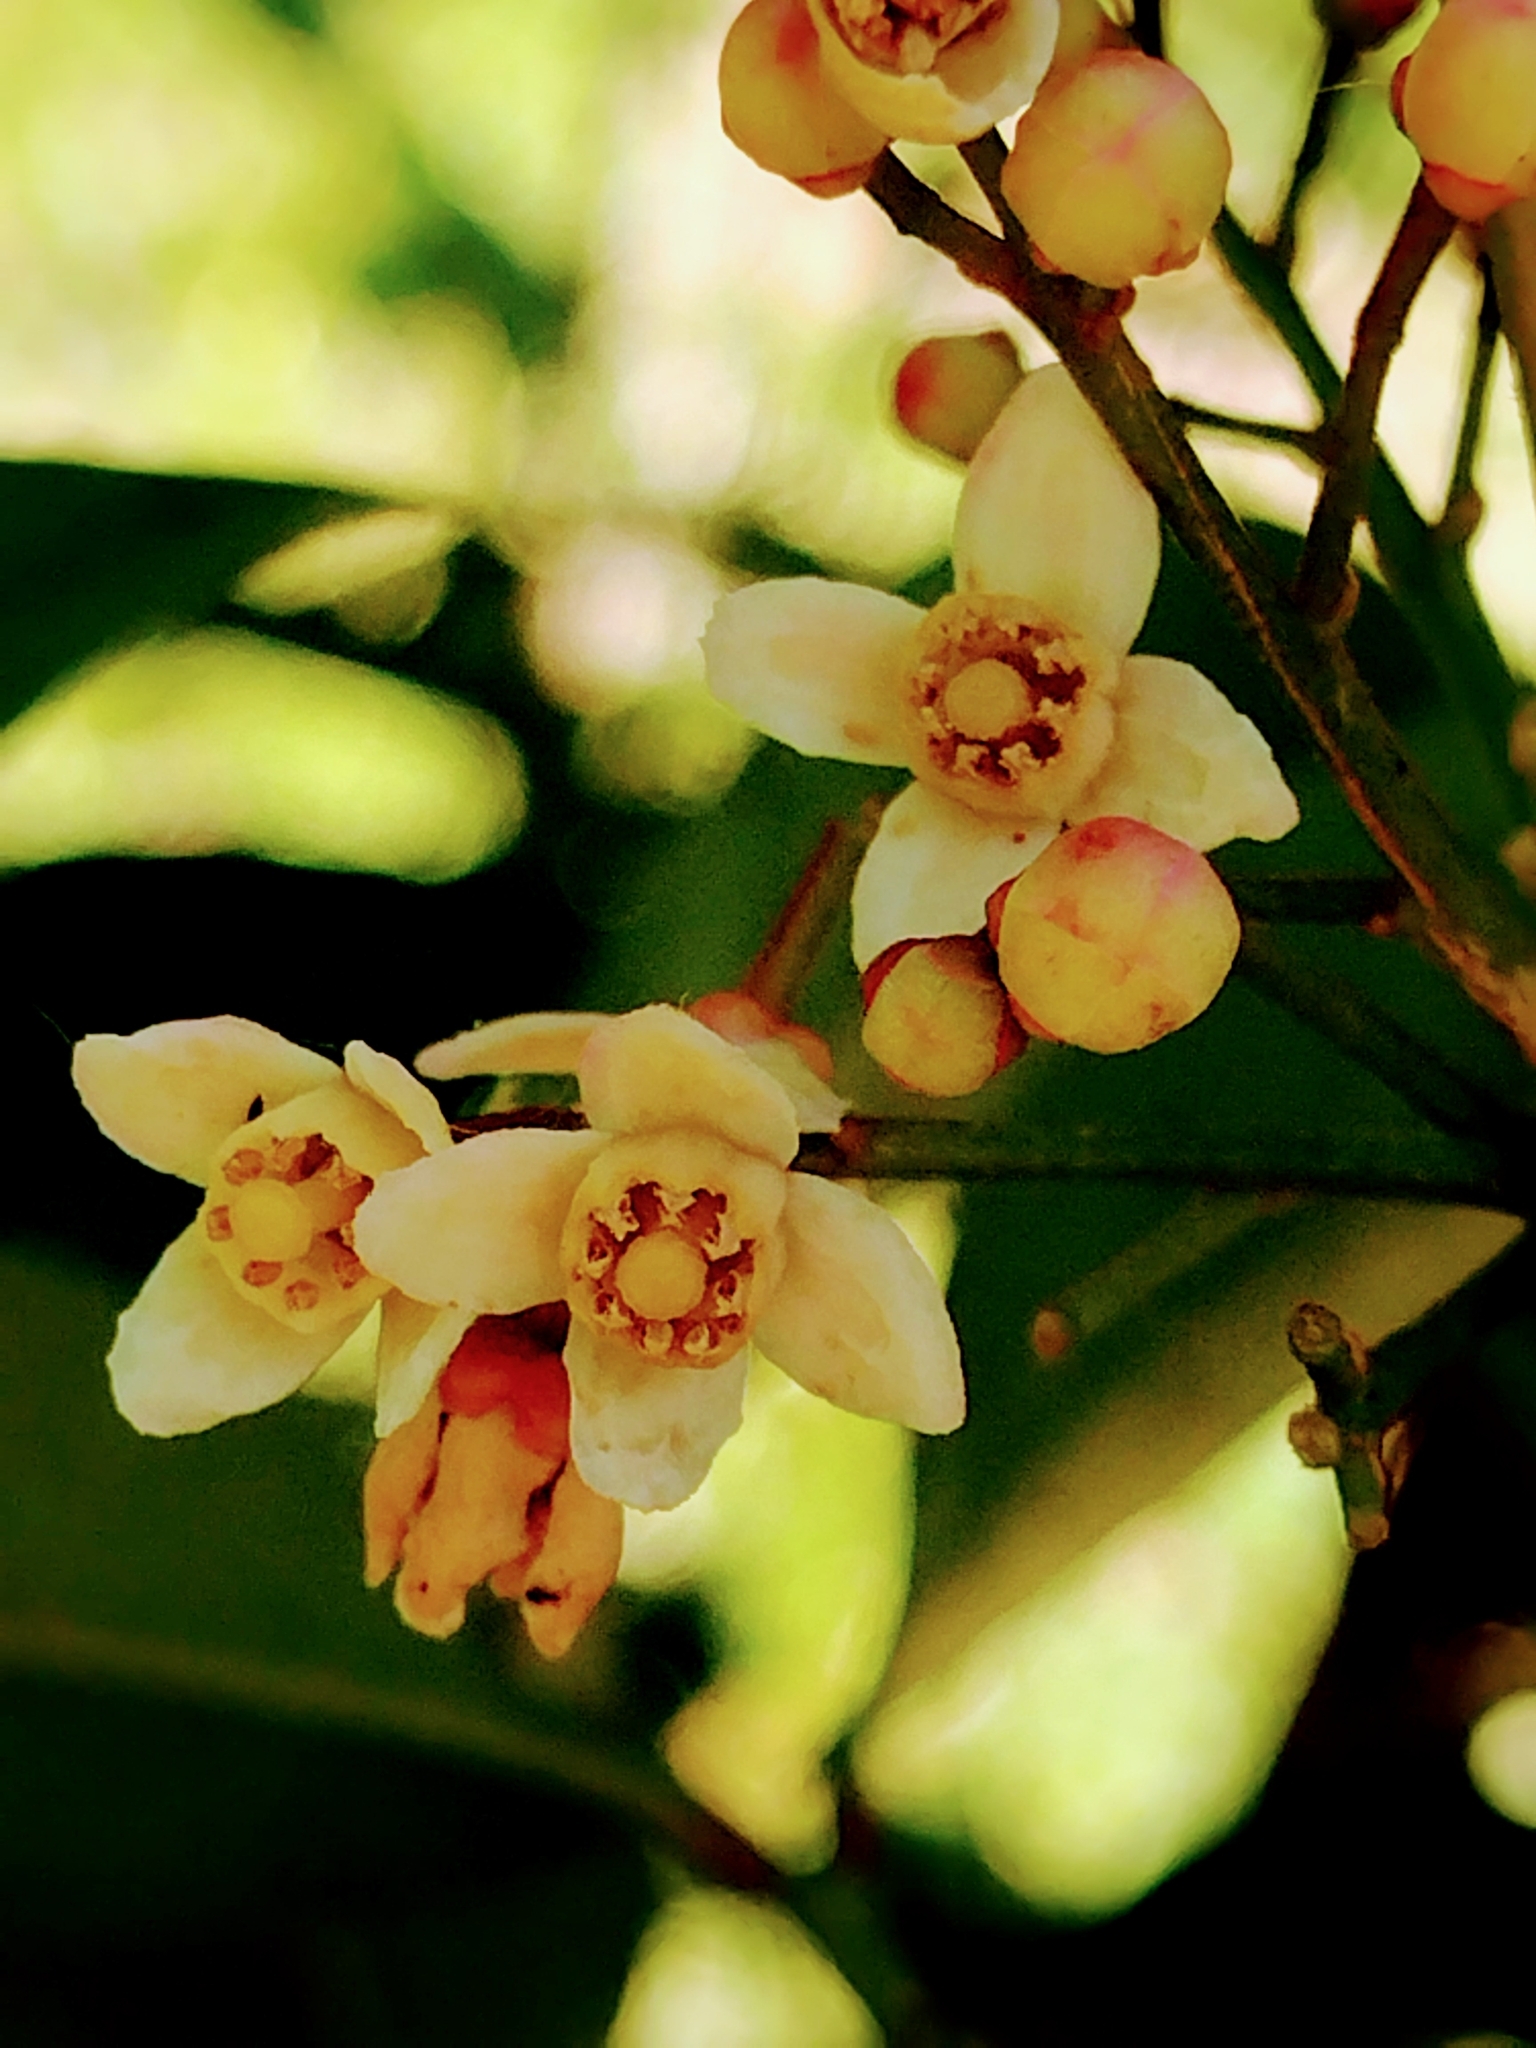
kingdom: Plantae
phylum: Tracheophyta
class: Magnoliopsida
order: Sapindales
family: Meliaceae
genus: Synoum
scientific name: Synoum glandulosum
